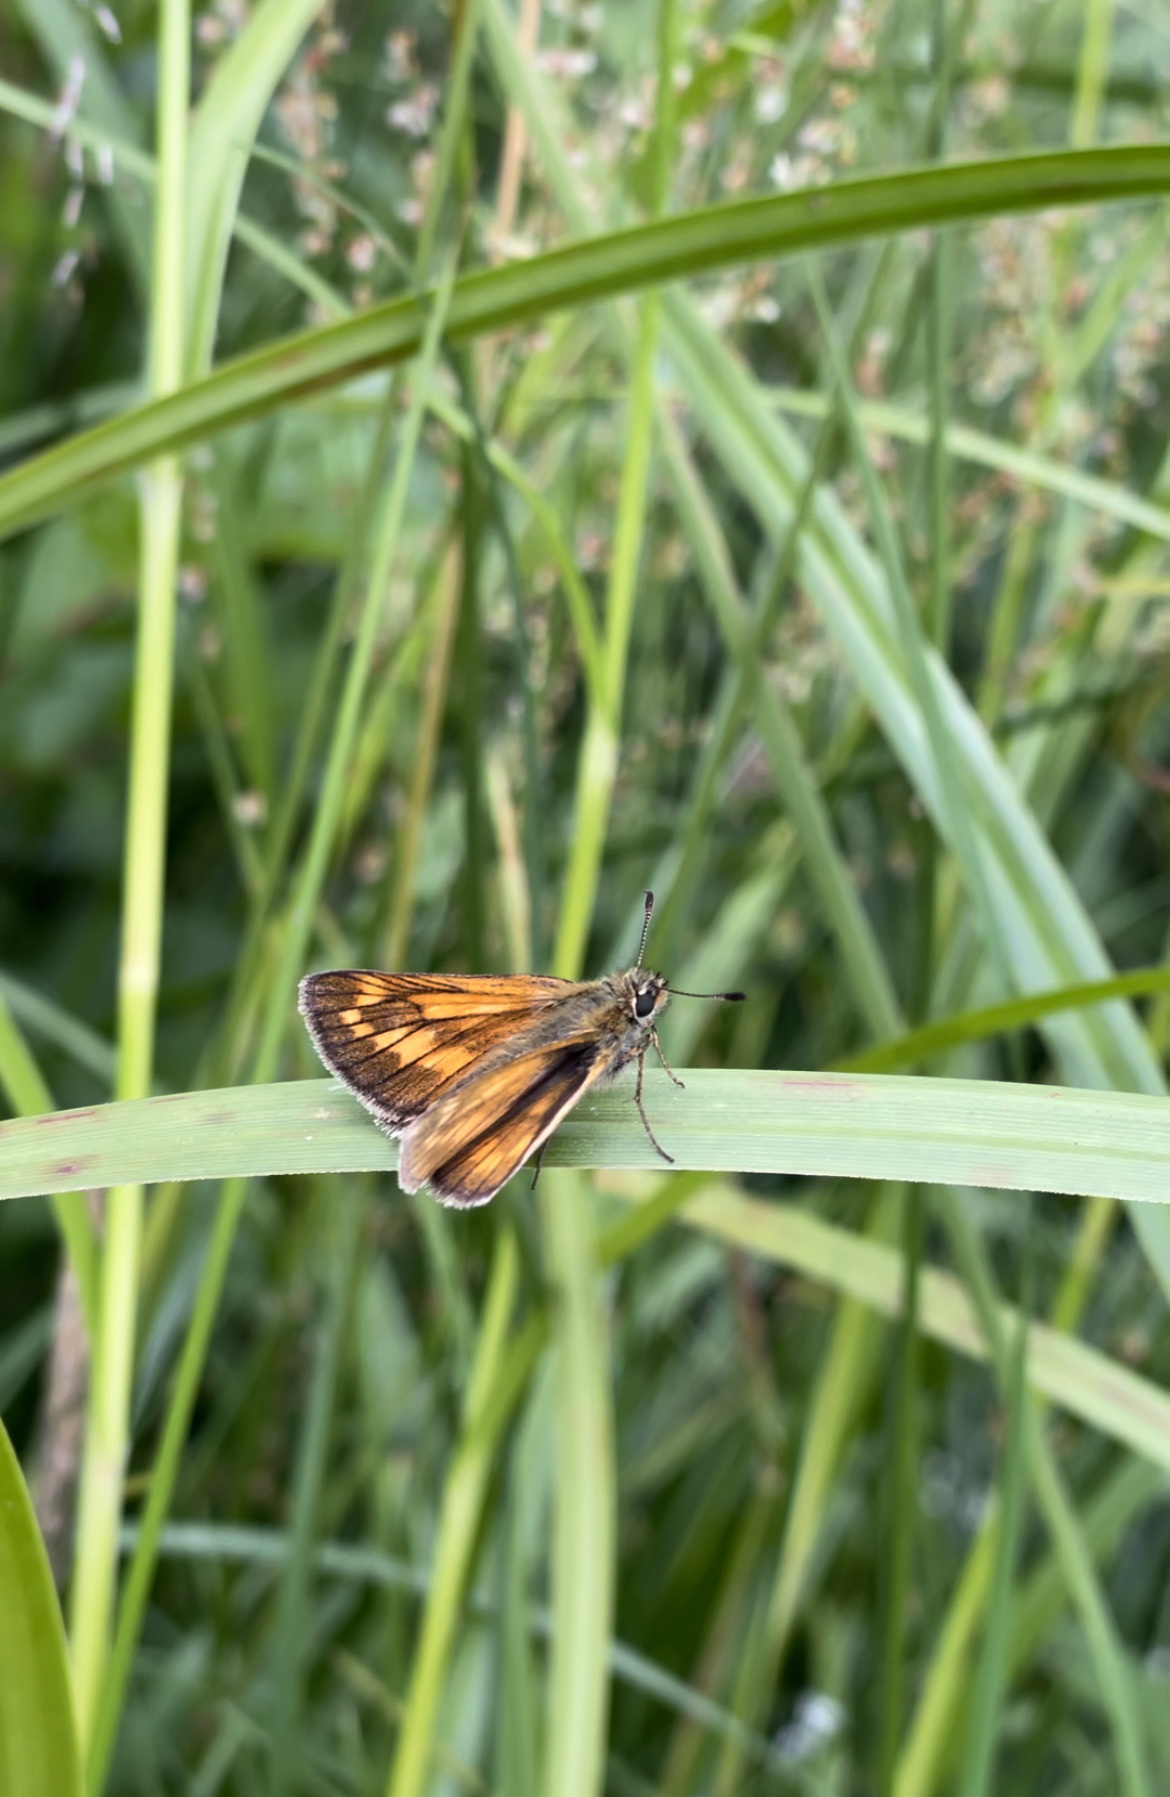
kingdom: Animalia
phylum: Arthropoda
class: Insecta
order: Lepidoptera
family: Hesperiidae
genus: Ochlodes
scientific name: Ochlodes venata
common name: Large skipper
